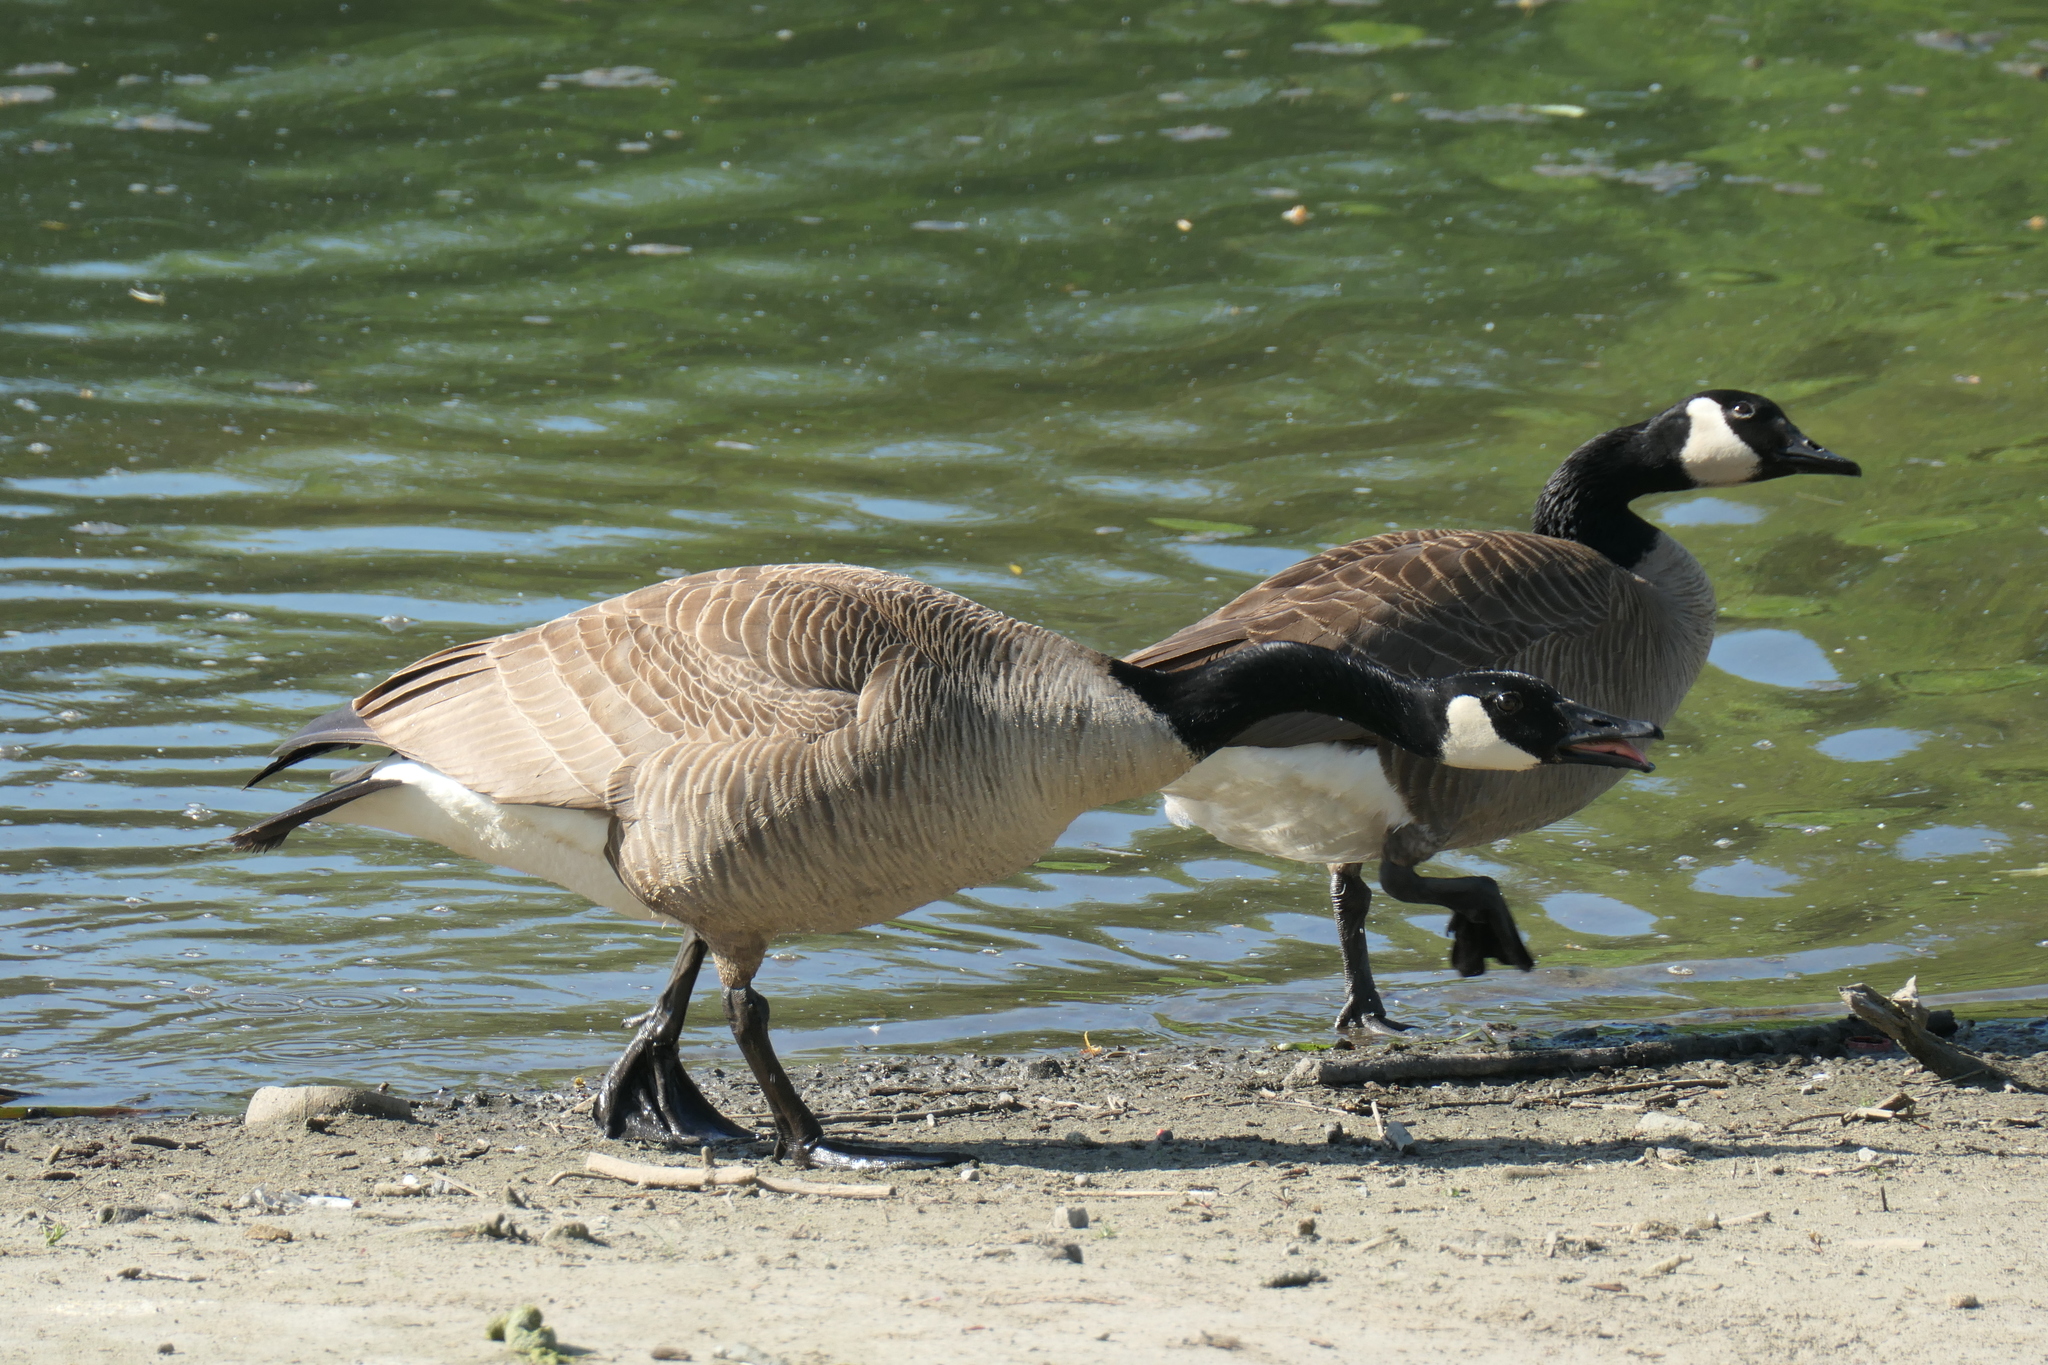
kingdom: Animalia
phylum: Chordata
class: Aves
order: Anseriformes
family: Anatidae
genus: Branta
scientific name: Branta canadensis
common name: Canada goose
